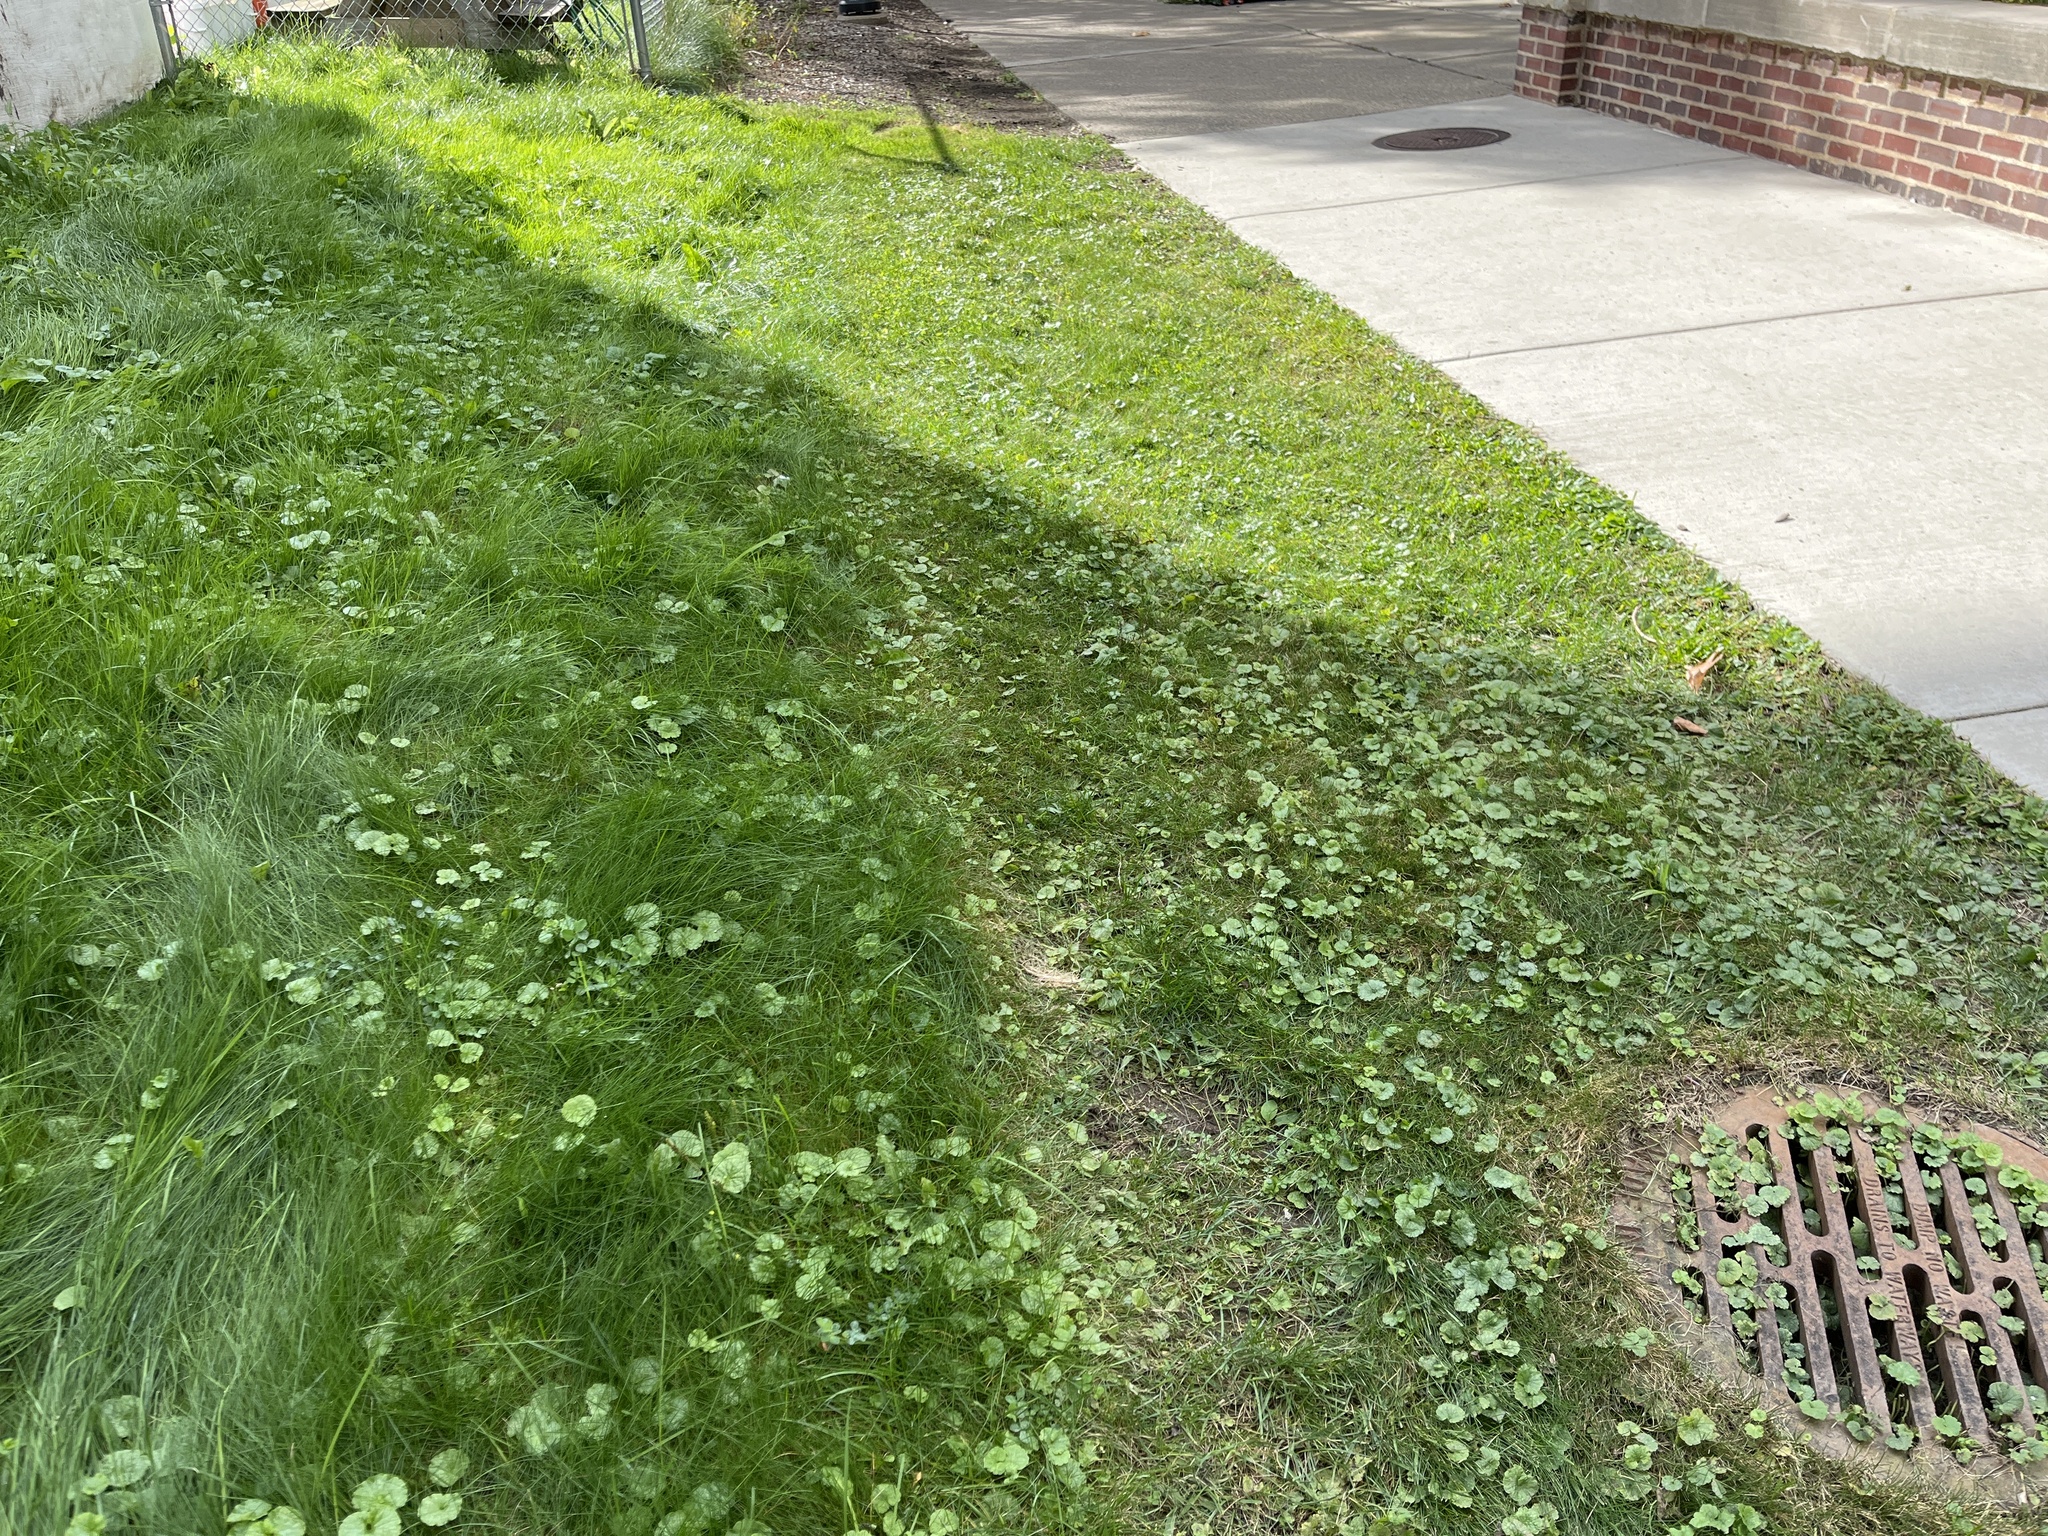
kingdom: Plantae
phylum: Tracheophyta
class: Magnoliopsida
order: Lamiales
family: Lamiaceae
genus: Glechoma
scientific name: Glechoma hederacea
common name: Ground ivy
